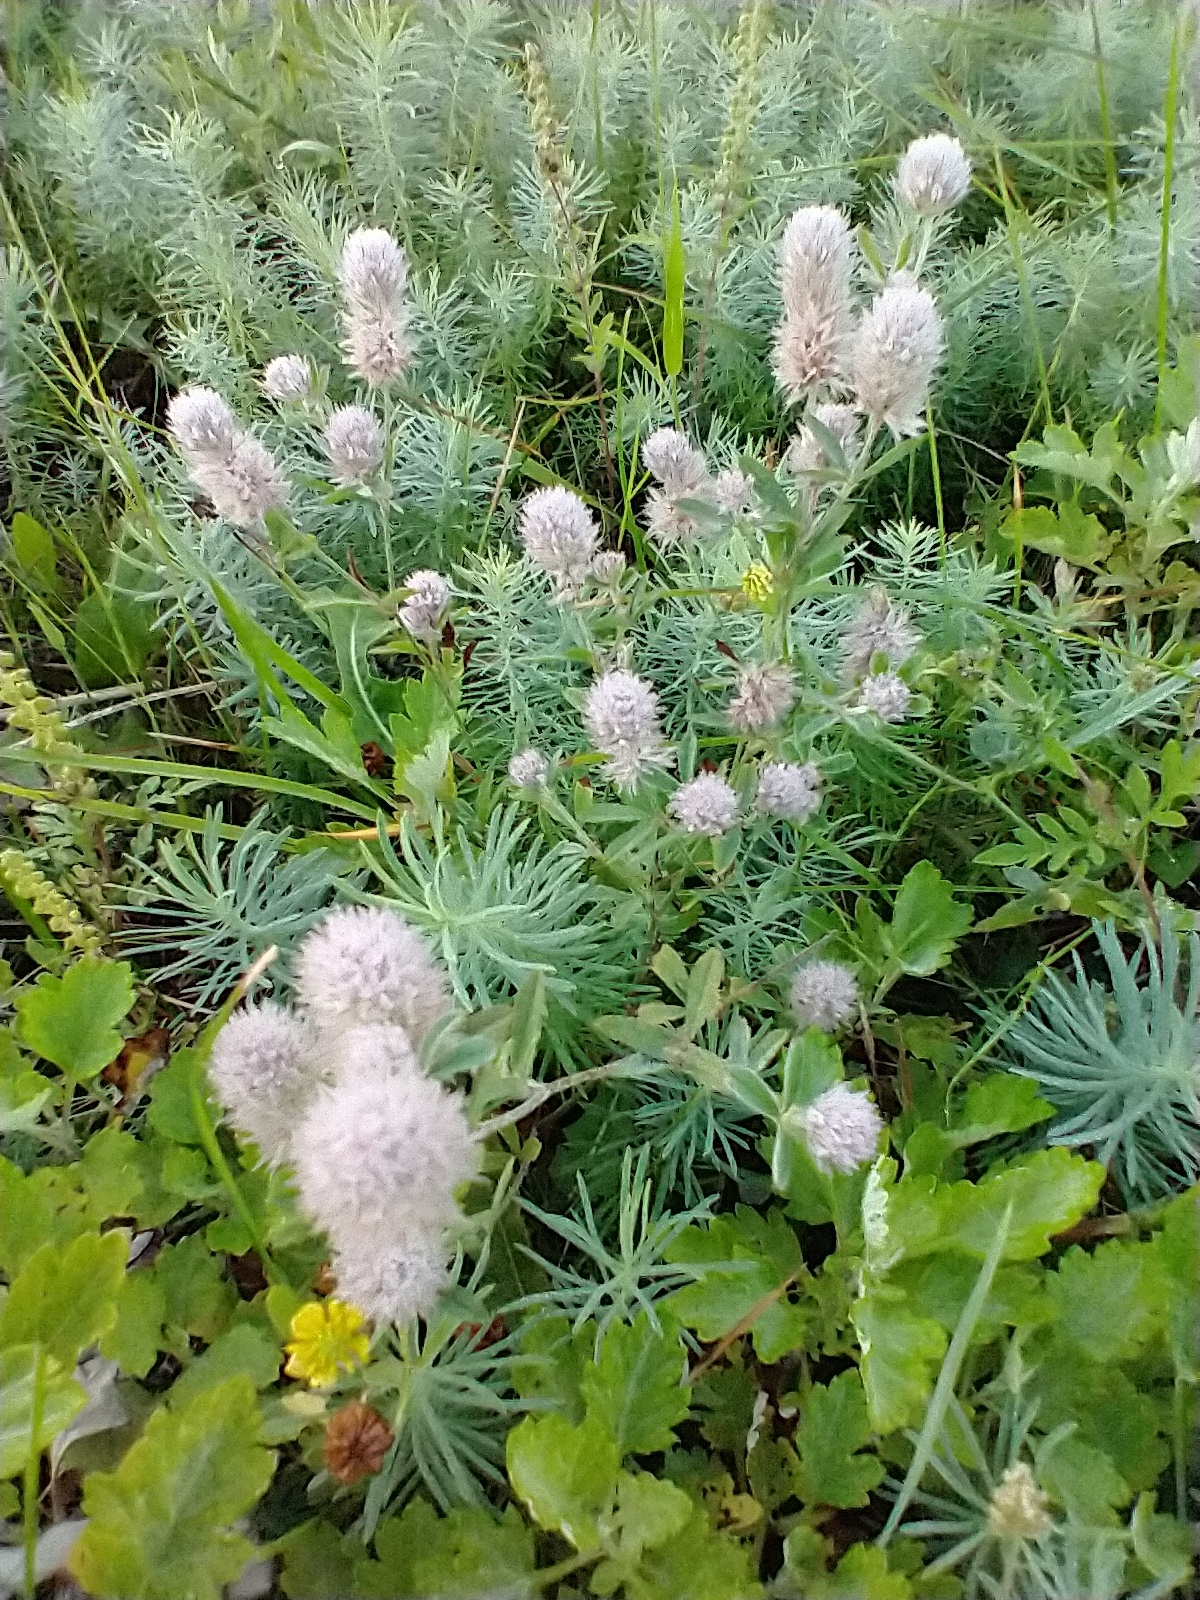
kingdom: Plantae
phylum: Tracheophyta
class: Magnoliopsida
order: Fabales
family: Fabaceae
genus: Trifolium
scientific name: Trifolium arvense
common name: Hare's-foot clover
